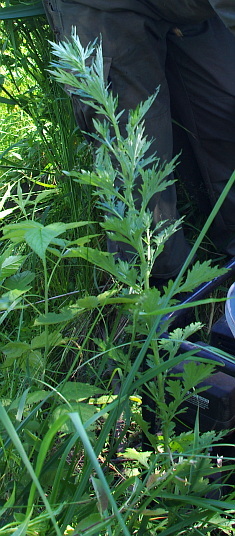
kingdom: Plantae
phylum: Tracheophyta
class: Magnoliopsida
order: Asterales
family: Asteraceae
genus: Artemisia
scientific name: Artemisia vulgaris
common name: Mugwort
